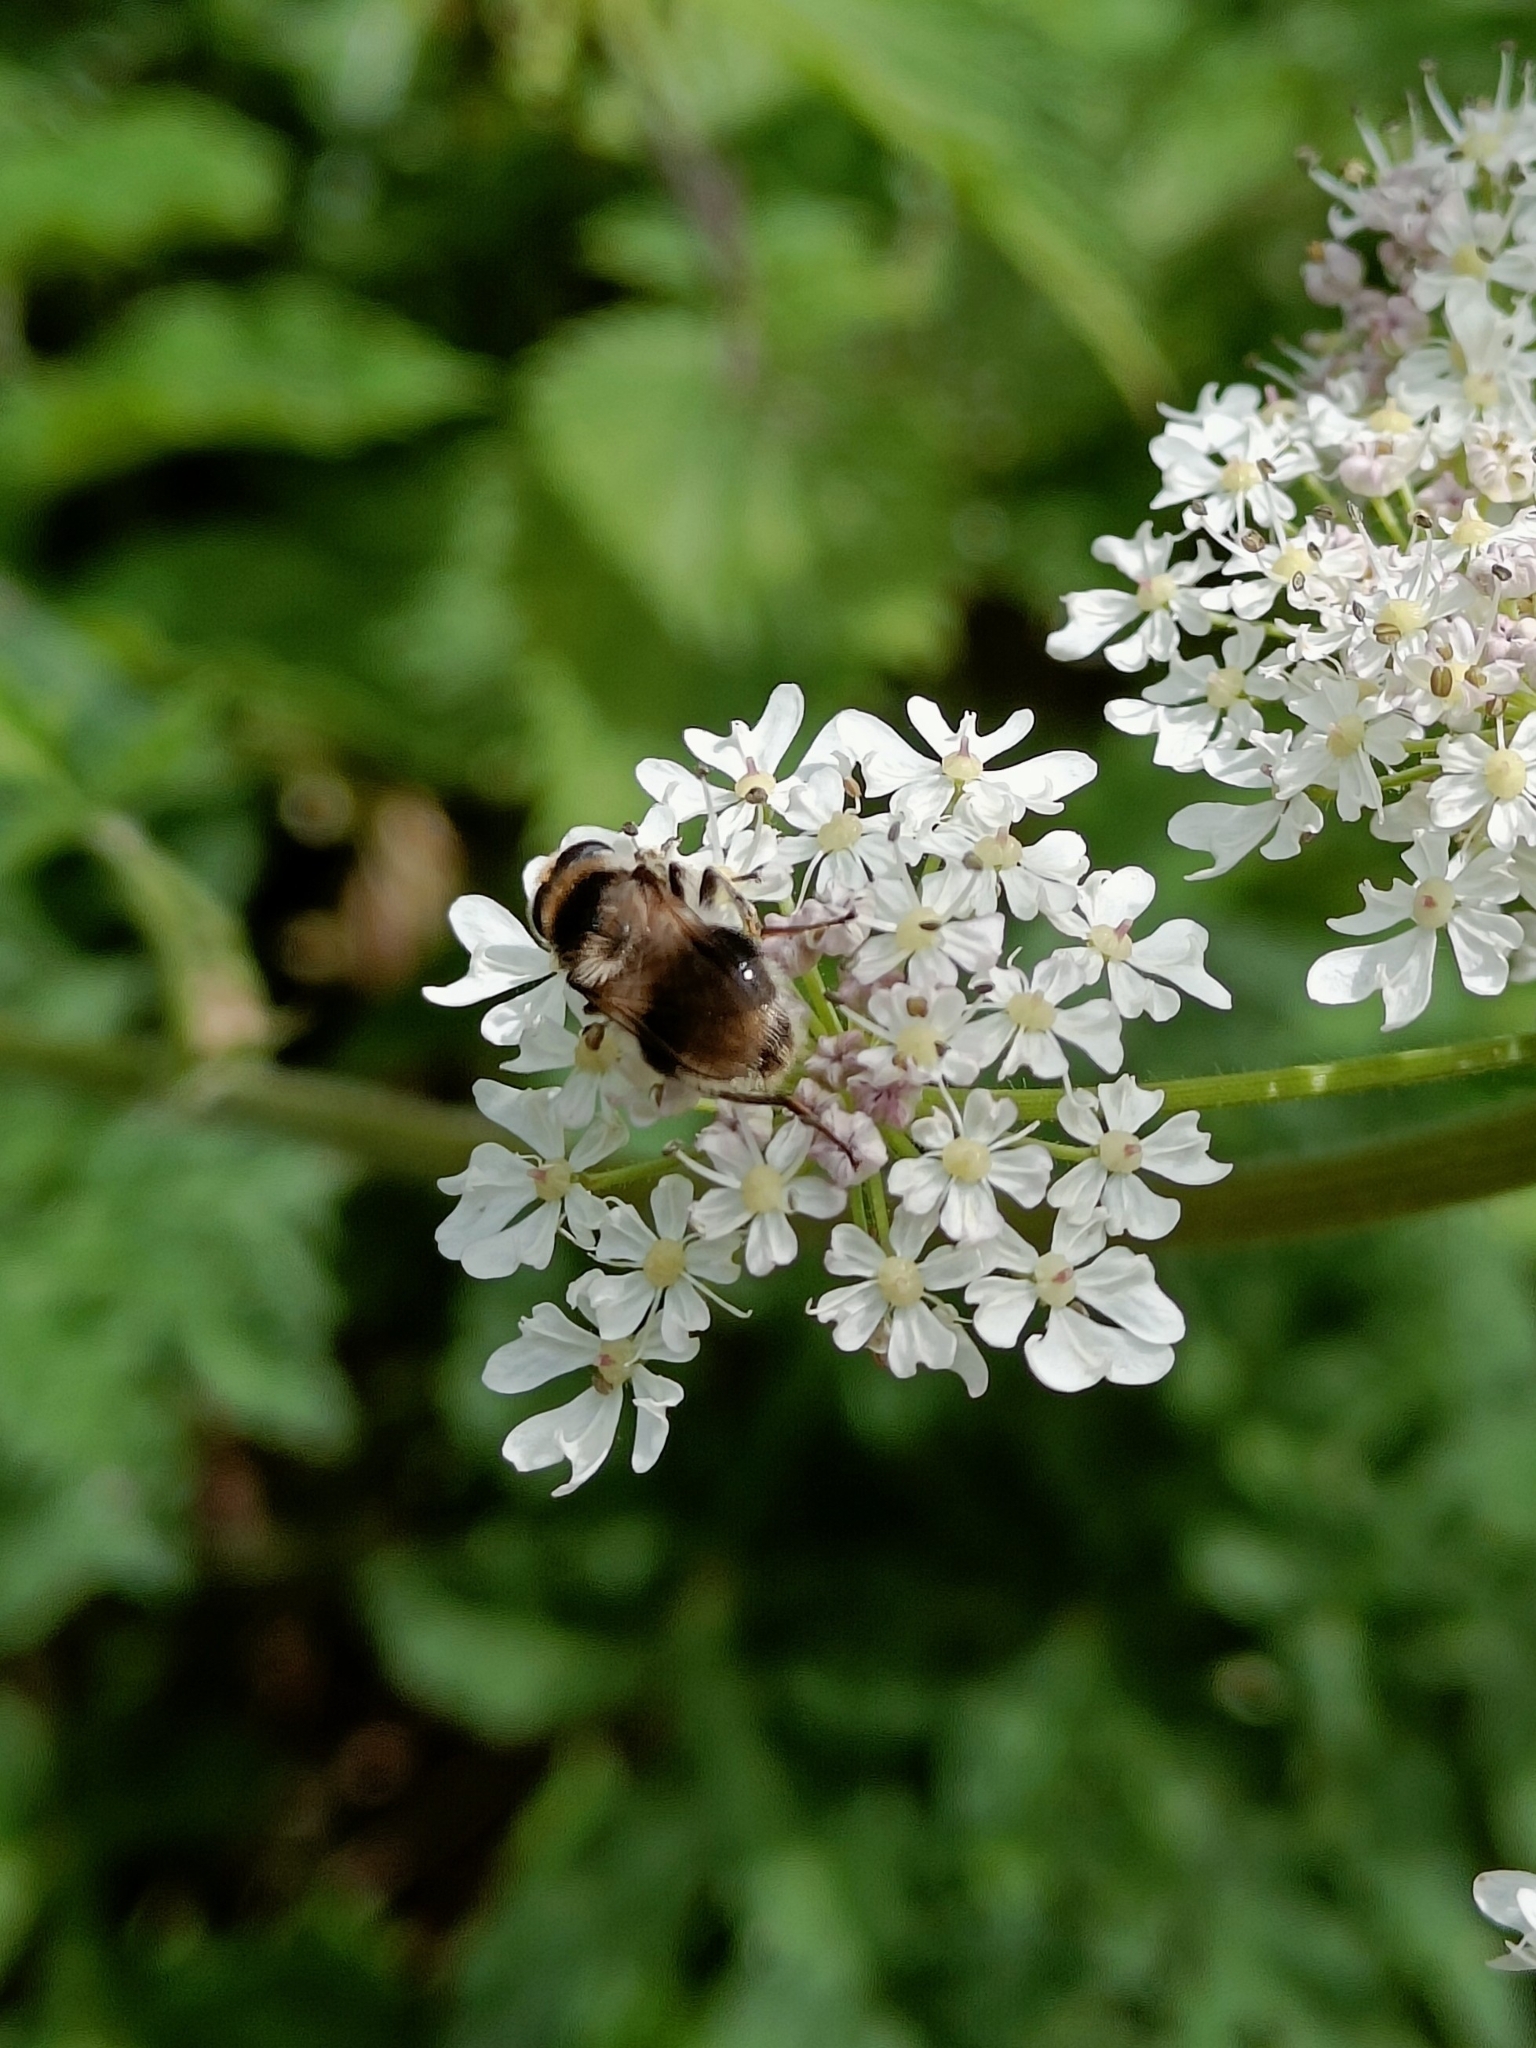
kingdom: Animalia
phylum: Arthropoda
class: Insecta
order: Diptera
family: Syrphidae
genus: Cheilosia
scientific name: Cheilosia illustrata
